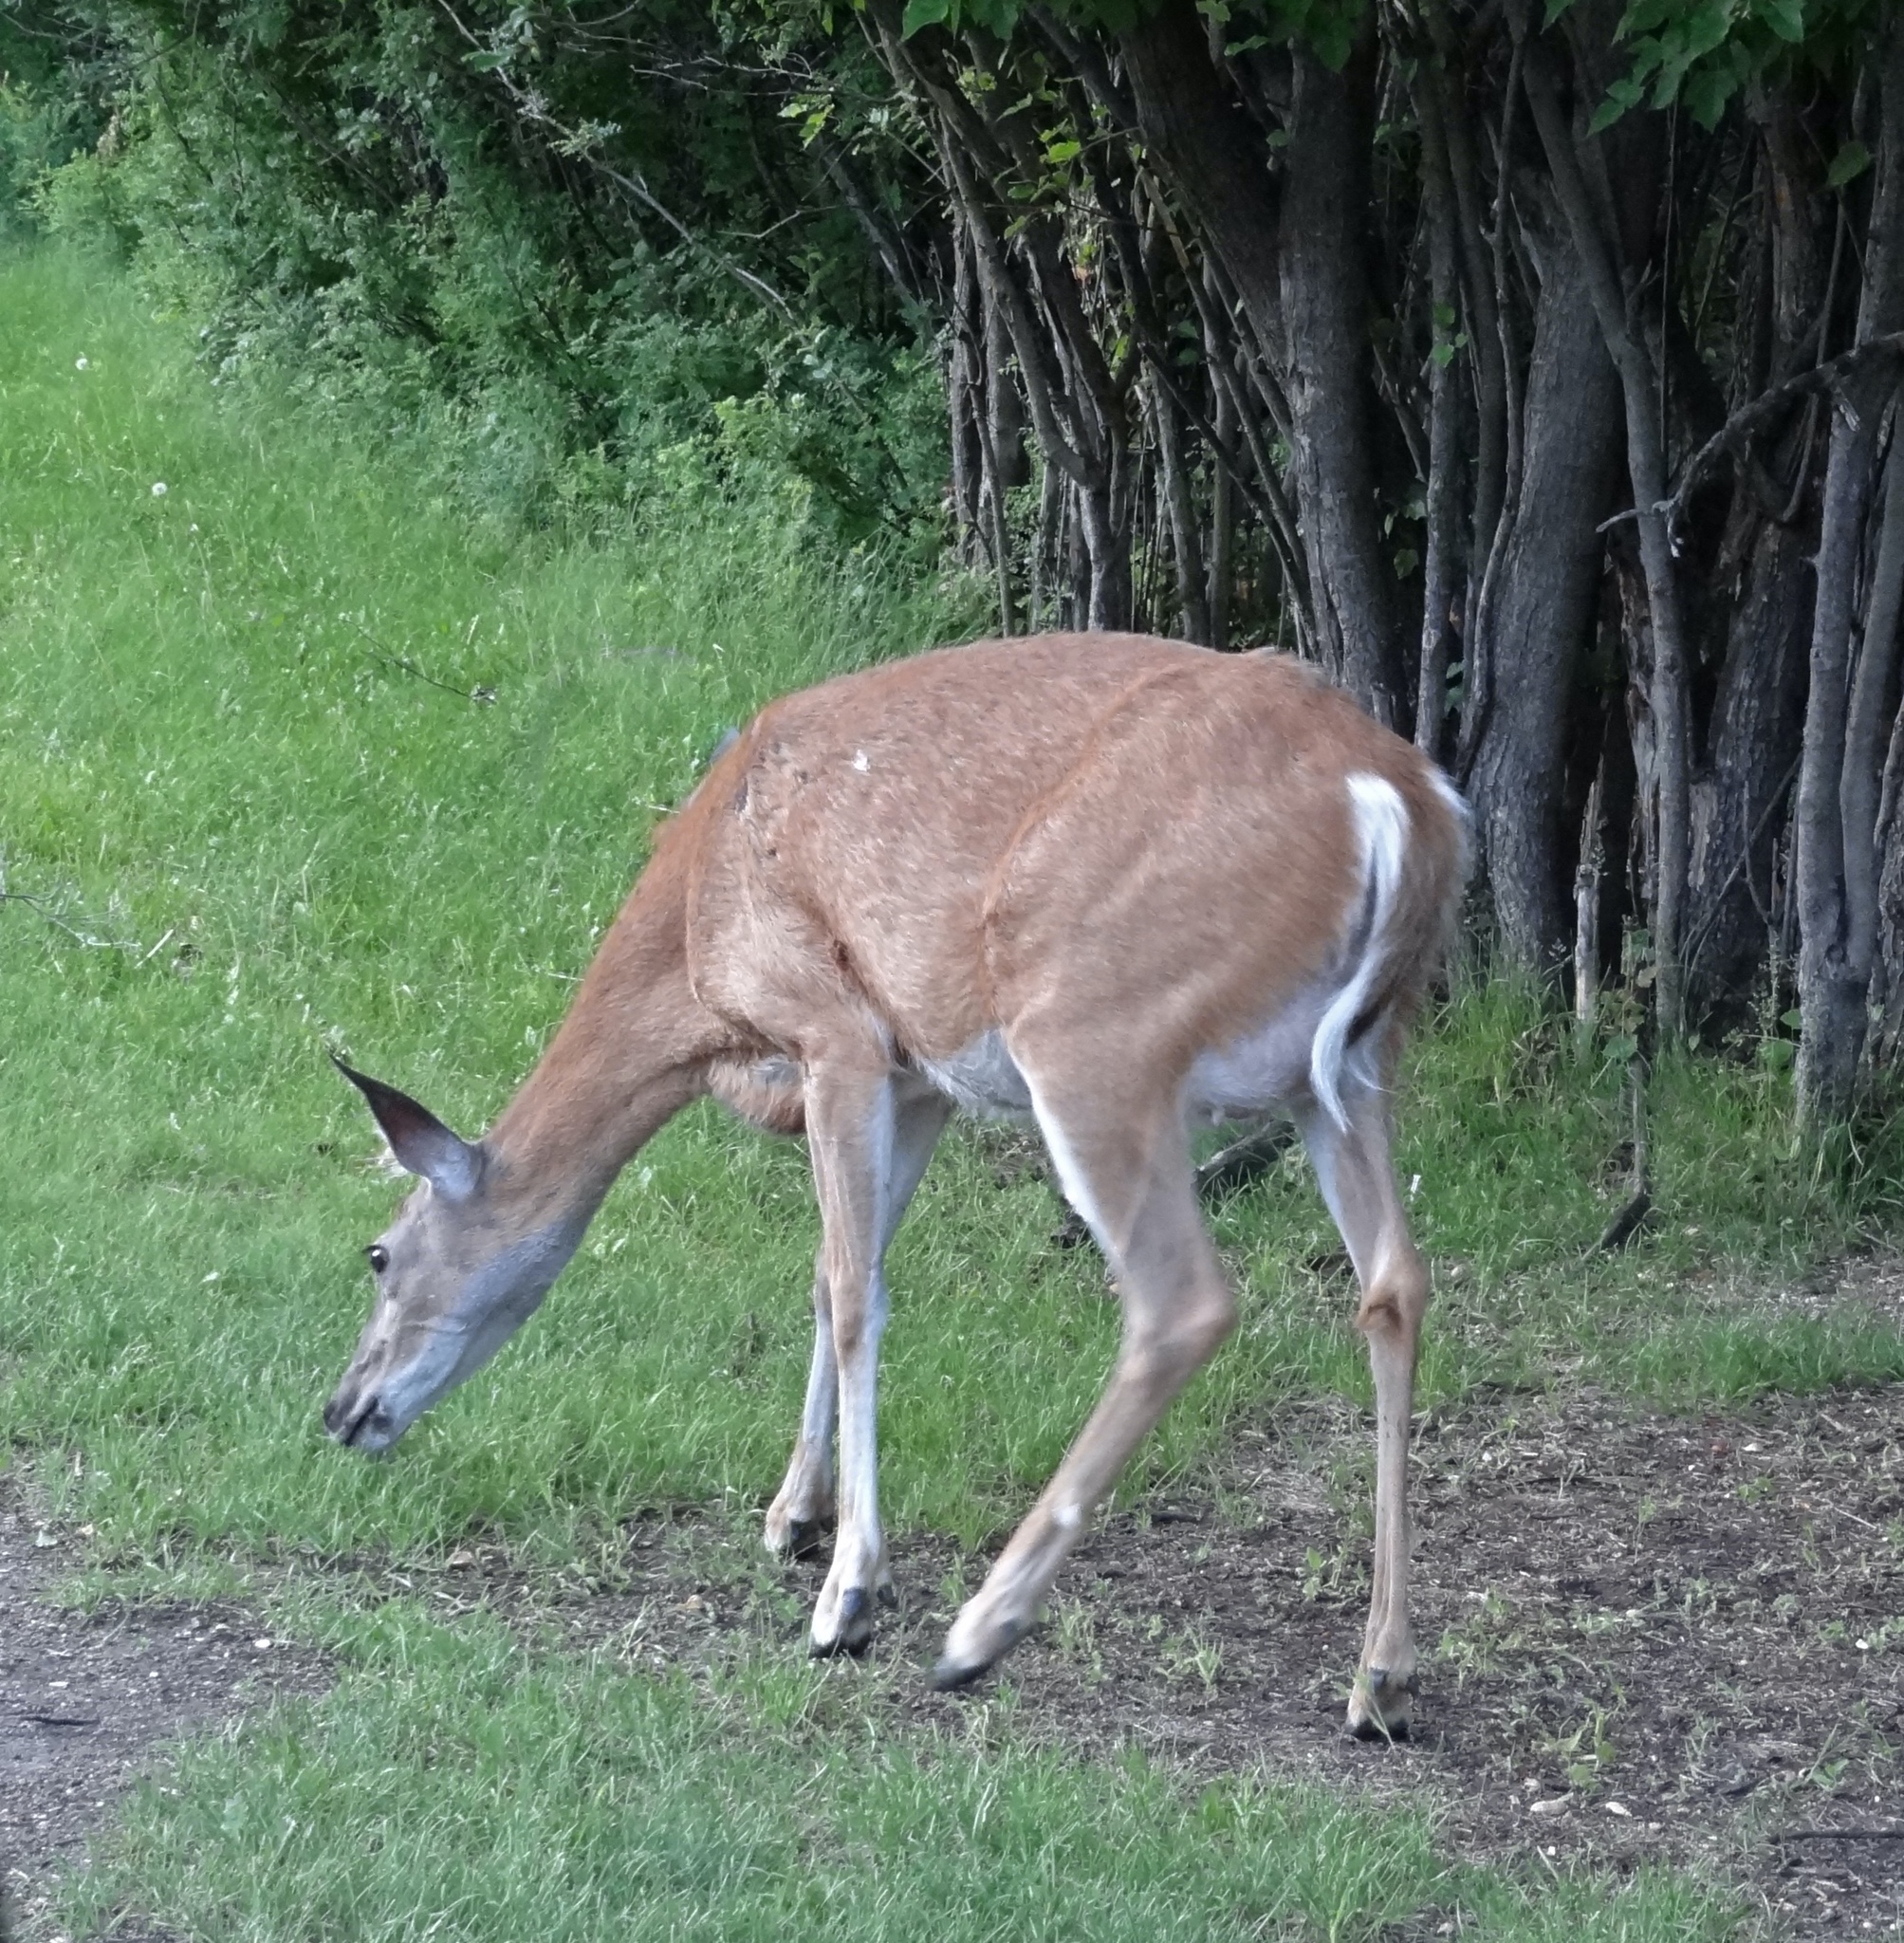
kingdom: Animalia
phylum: Chordata
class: Mammalia
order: Artiodactyla
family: Cervidae
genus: Odocoileus
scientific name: Odocoileus virginianus
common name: White-tailed deer
